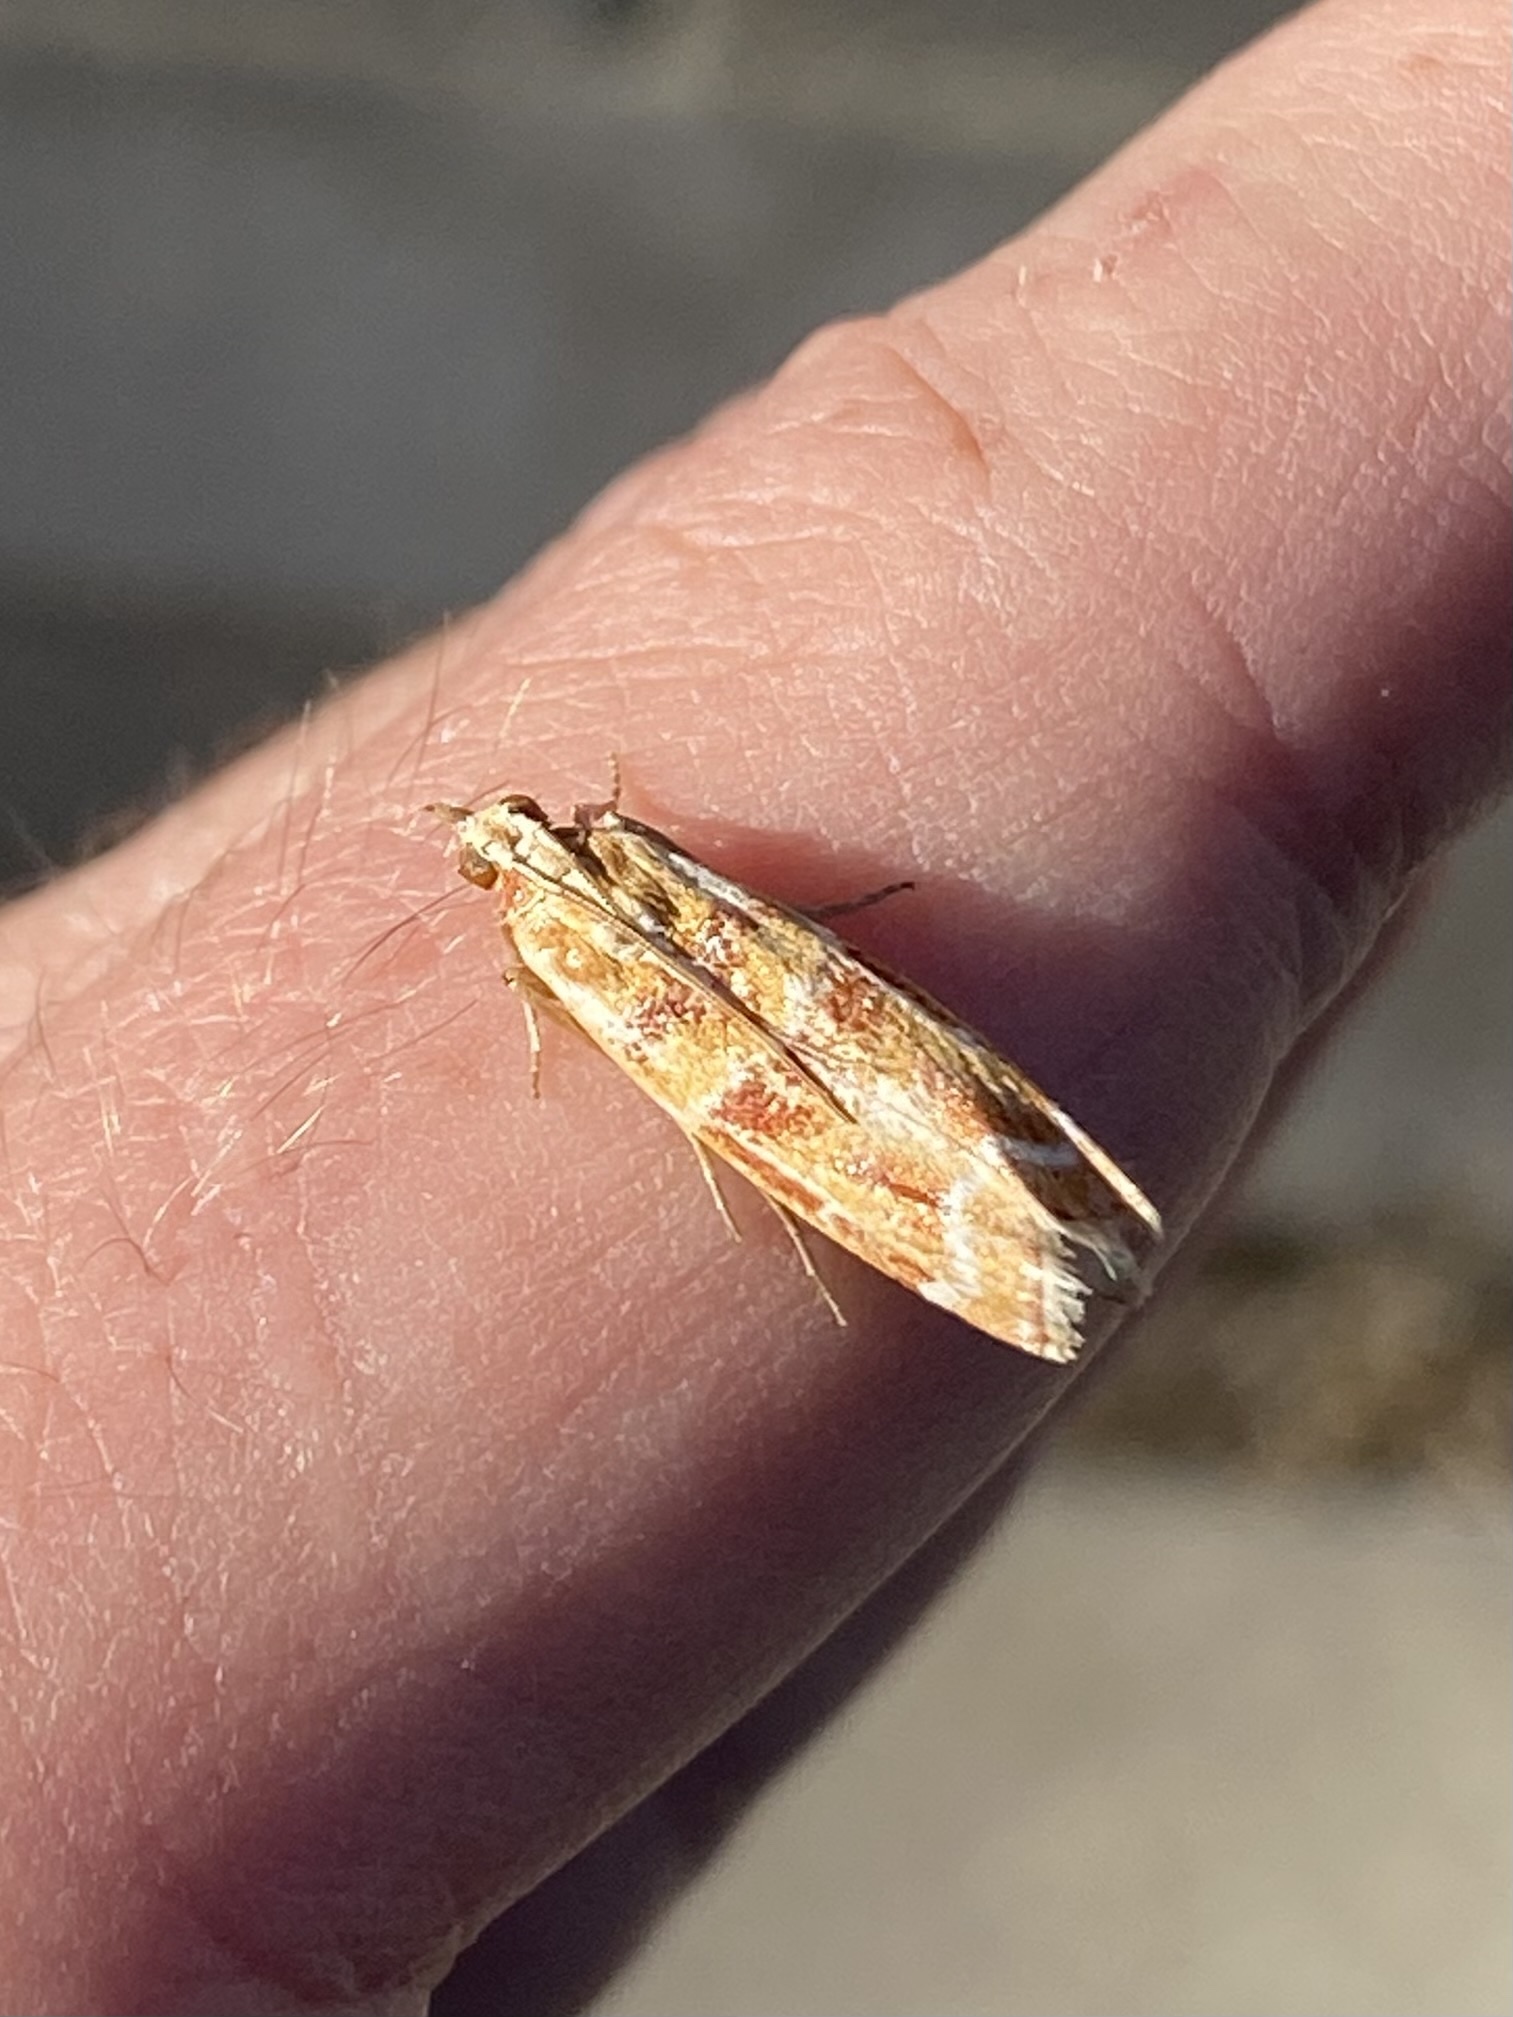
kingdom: Animalia
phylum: Arthropoda
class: Insecta
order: Lepidoptera
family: Pyralidae
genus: Dioryctria
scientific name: Dioryctria auranticella
